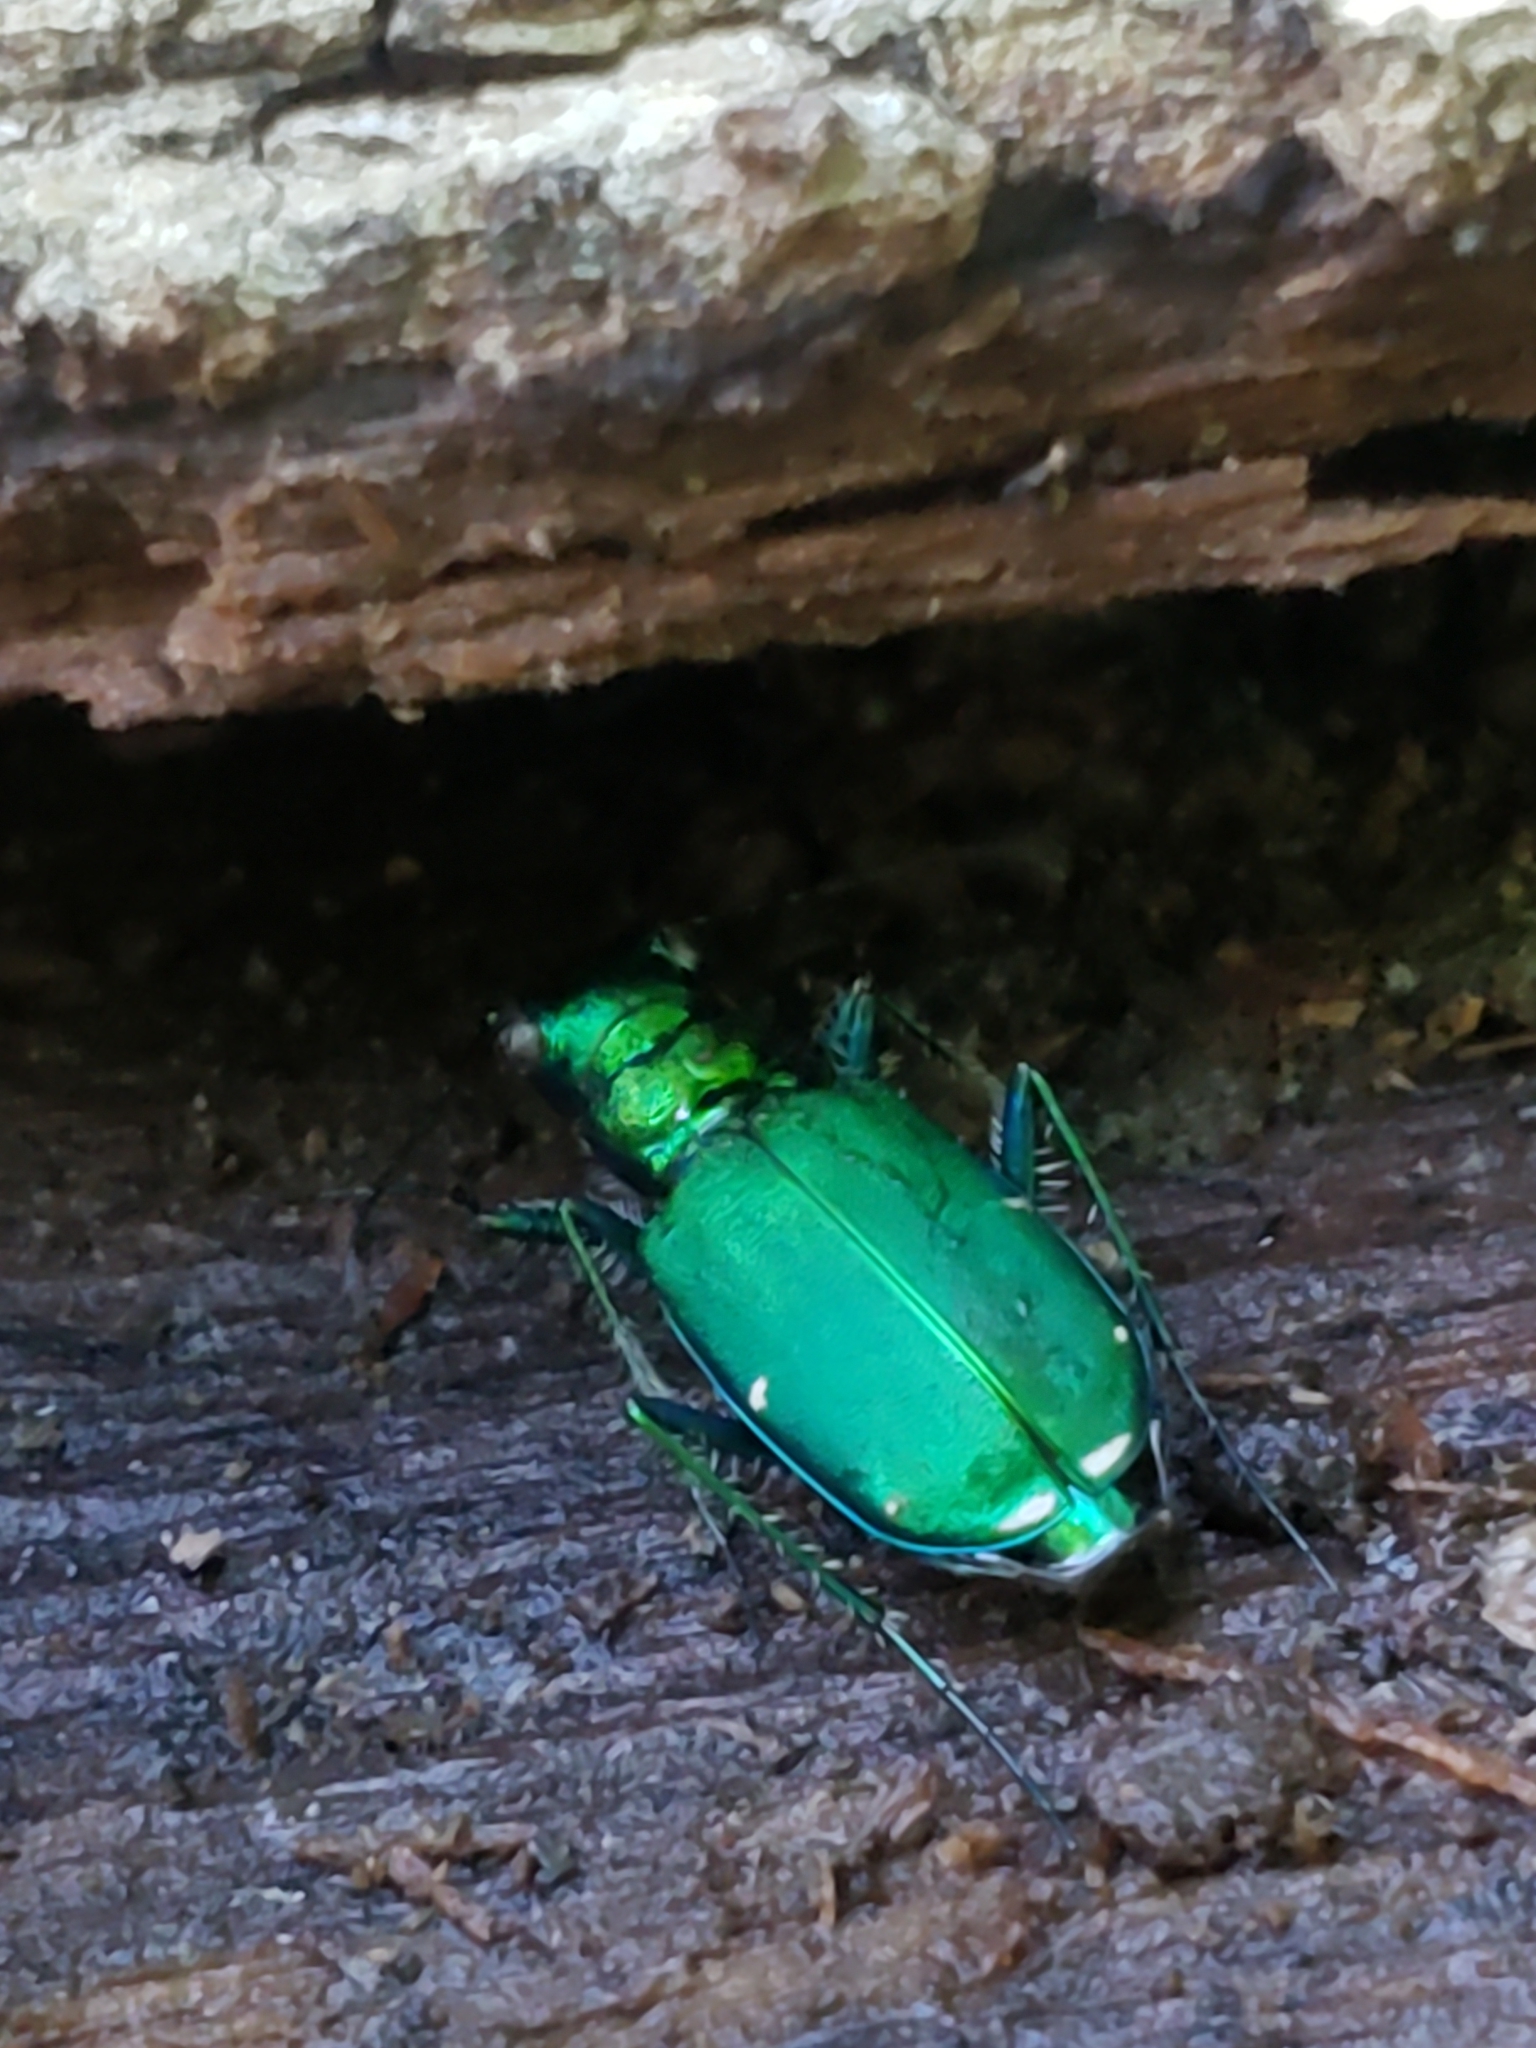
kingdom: Animalia
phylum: Arthropoda
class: Insecta
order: Coleoptera
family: Carabidae
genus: Cicindela
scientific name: Cicindela sexguttata
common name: Six-spotted tiger beetle
